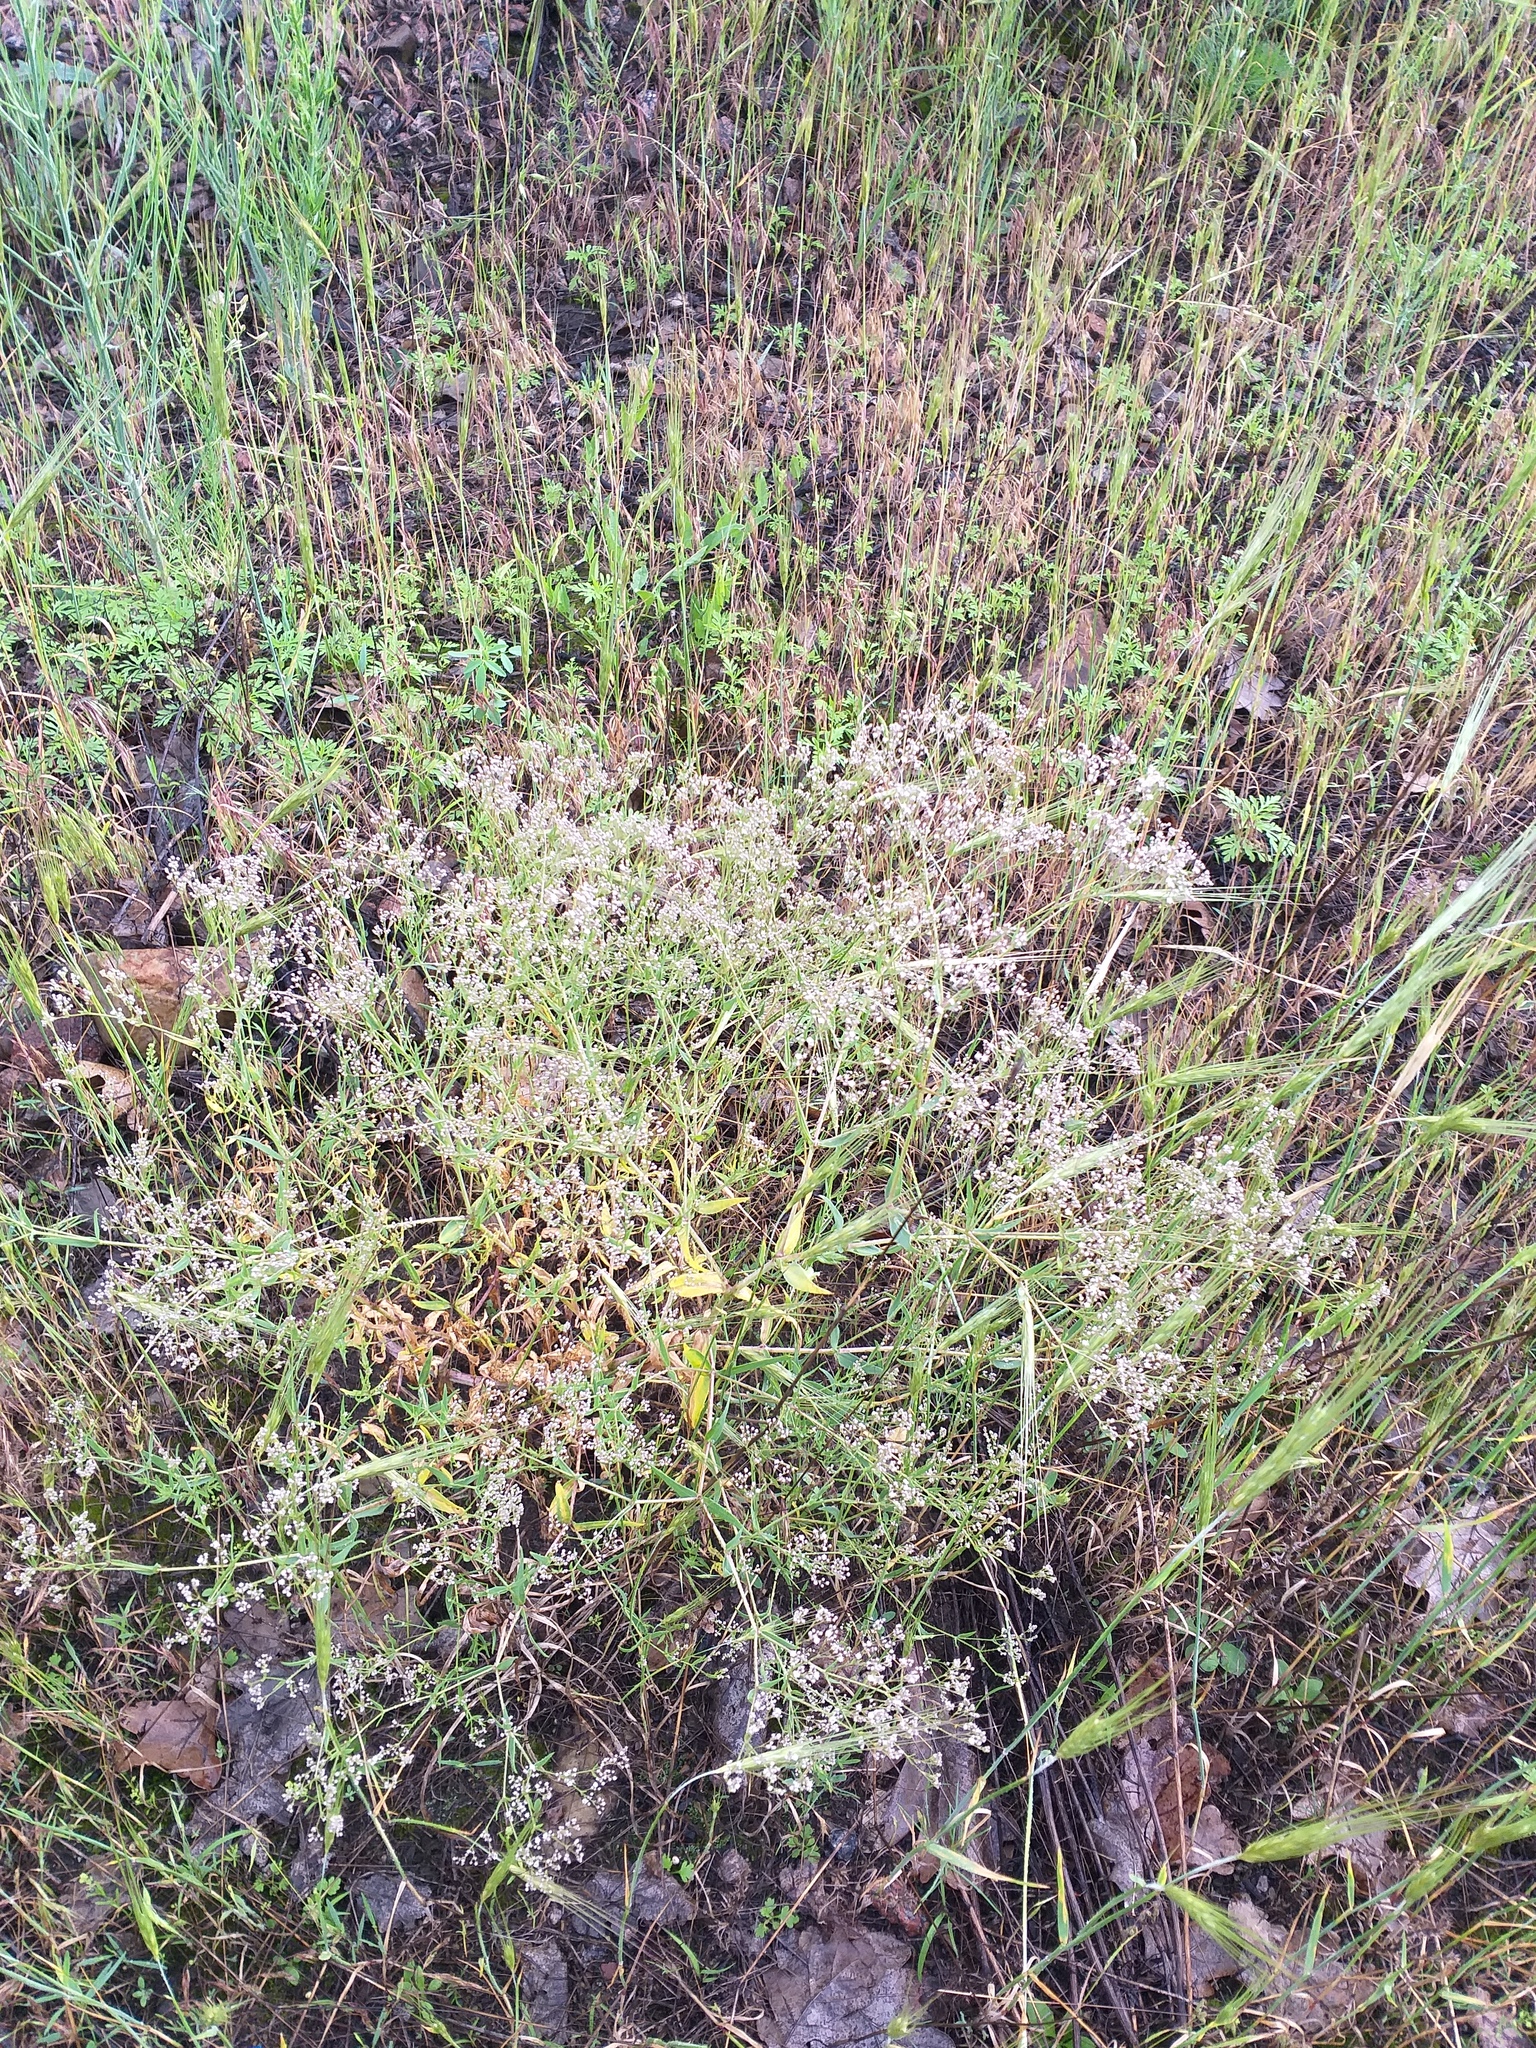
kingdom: Plantae
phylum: Tracheophyta
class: Magnoliopsida
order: Caryophyllales
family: Caryophyllaceae
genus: Gypsophila
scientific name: Gypsophila paniculata
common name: Baby's-breath
